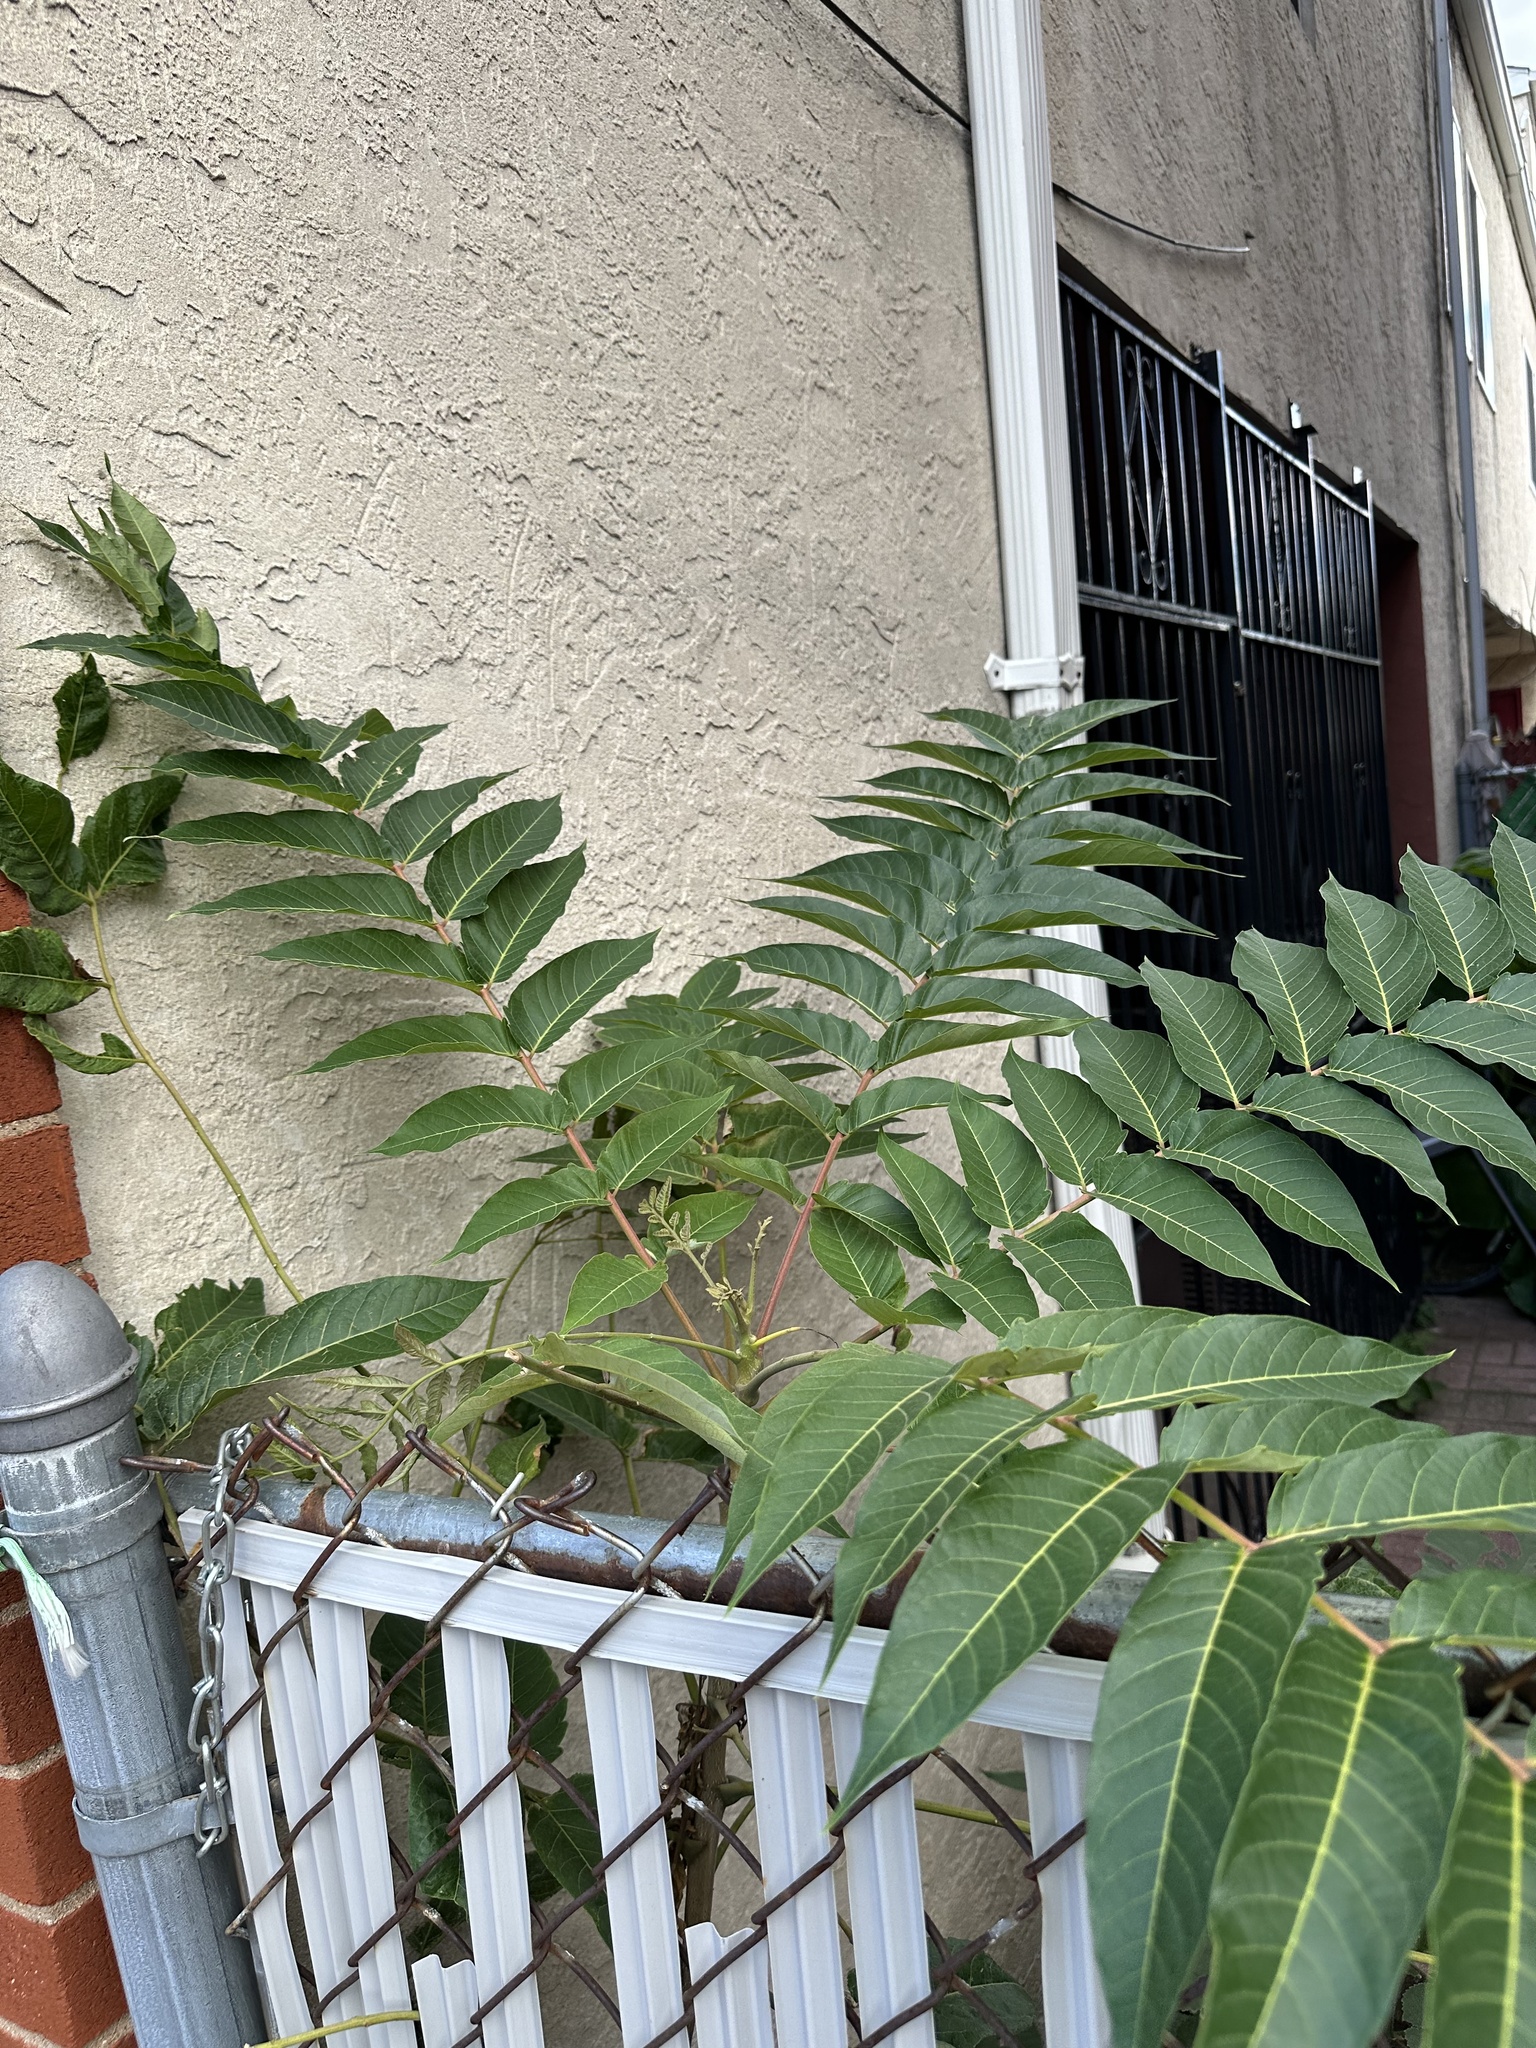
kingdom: Plantae
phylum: Tracheophyta
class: Magnoliopsida
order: Sapindales
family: Simaroubaceae
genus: Ailanthus
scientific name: Ailanthus altissima
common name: Tree-of-heaven
